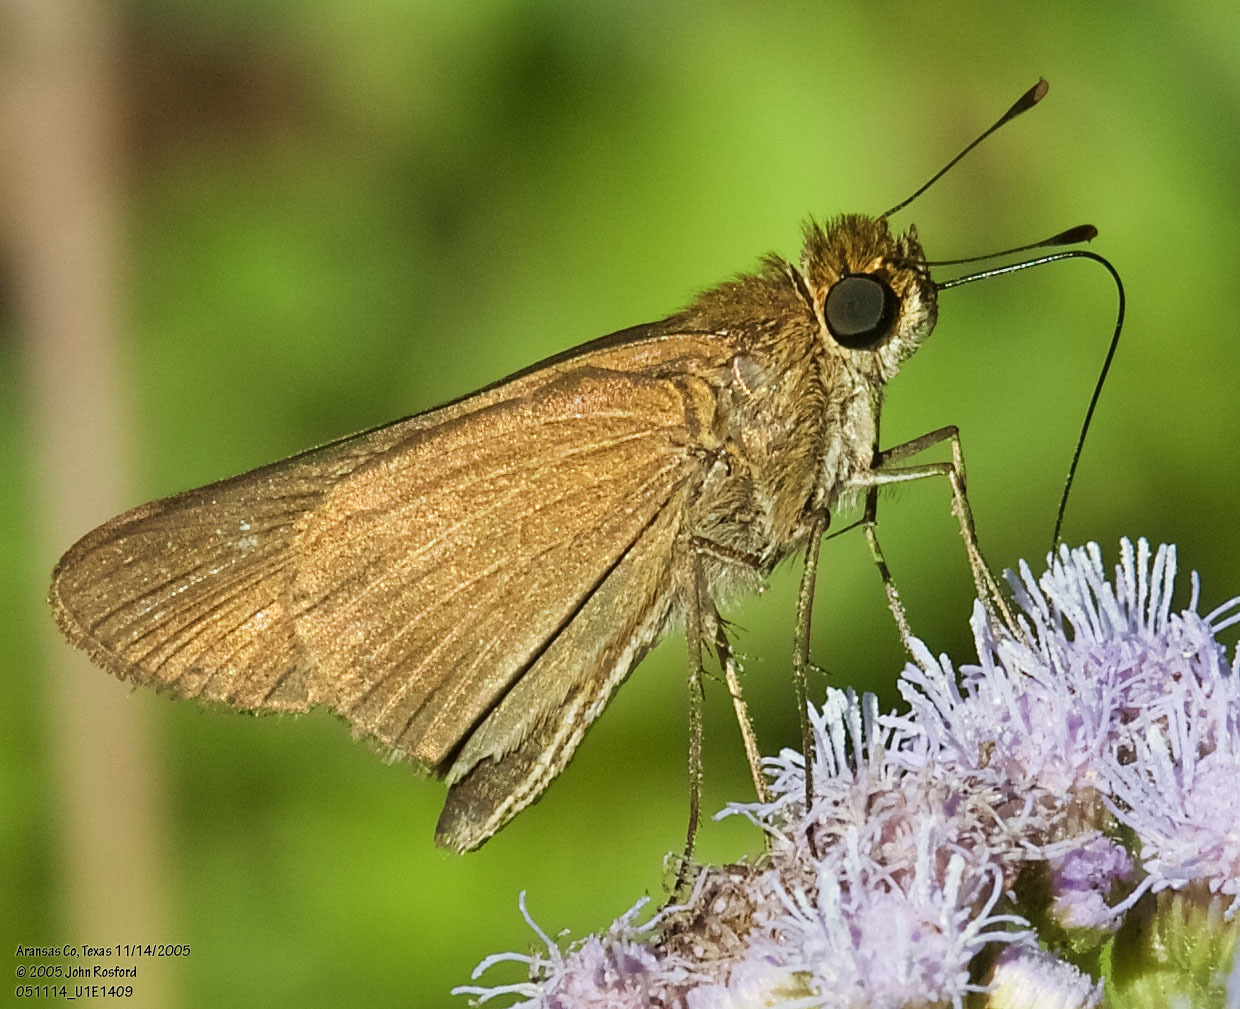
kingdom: Animalia
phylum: Arthropoda
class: Insecta
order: Lepidoptera
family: Hesperiidae
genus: Panoquina
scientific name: Panoquina ocola
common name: Ocola skipper
